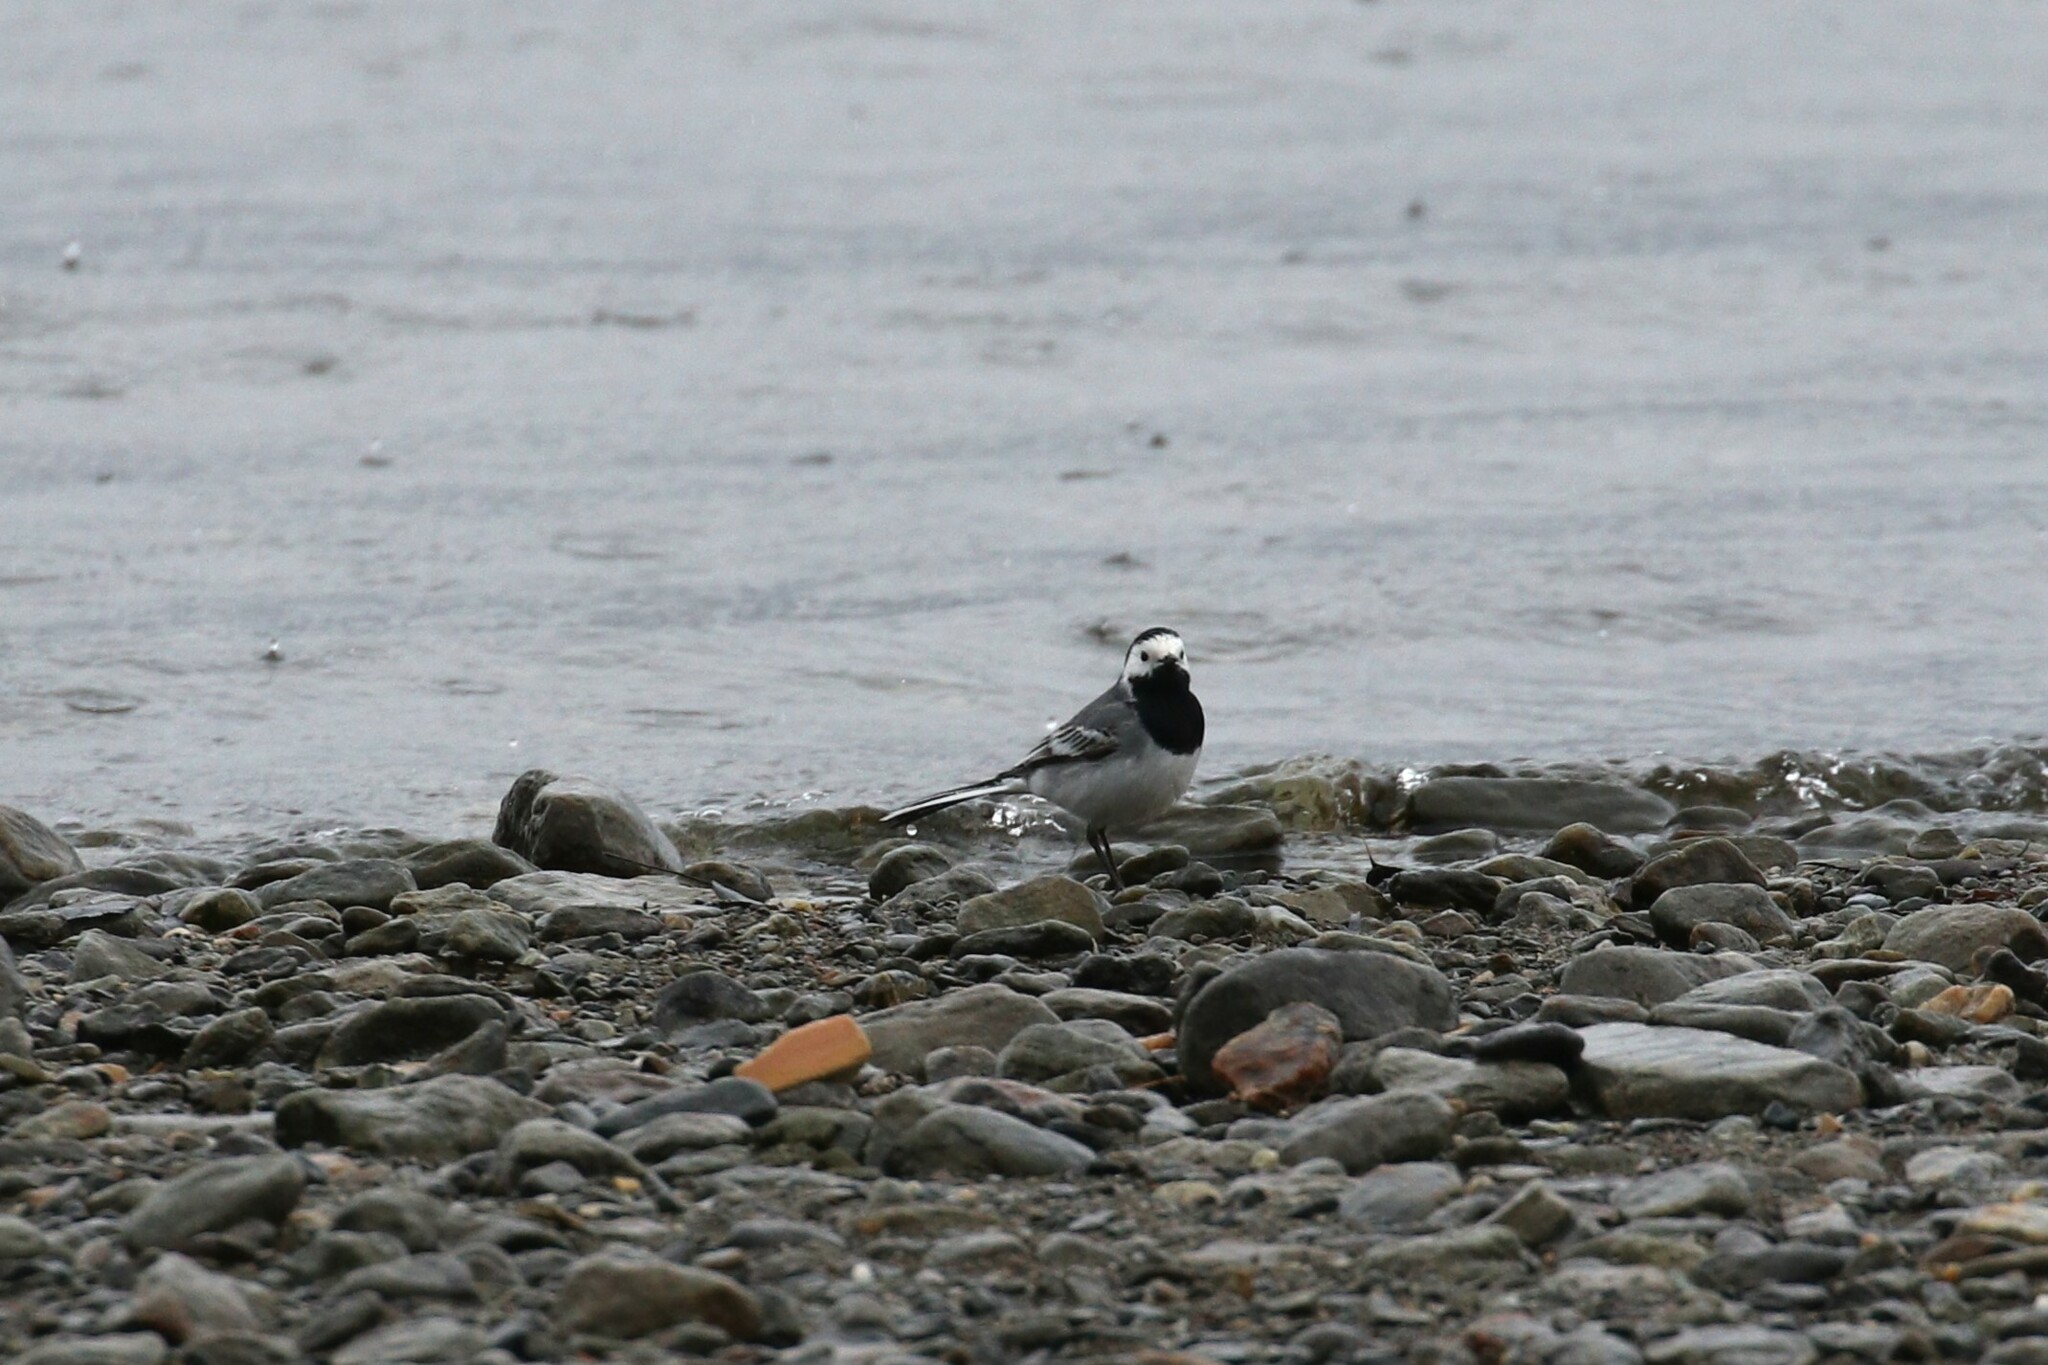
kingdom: Animalia
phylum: Chordata
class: Aves
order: Passeriformes
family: Motacillidae
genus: Motacilla
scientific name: Motacilla alba
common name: White wagtail
